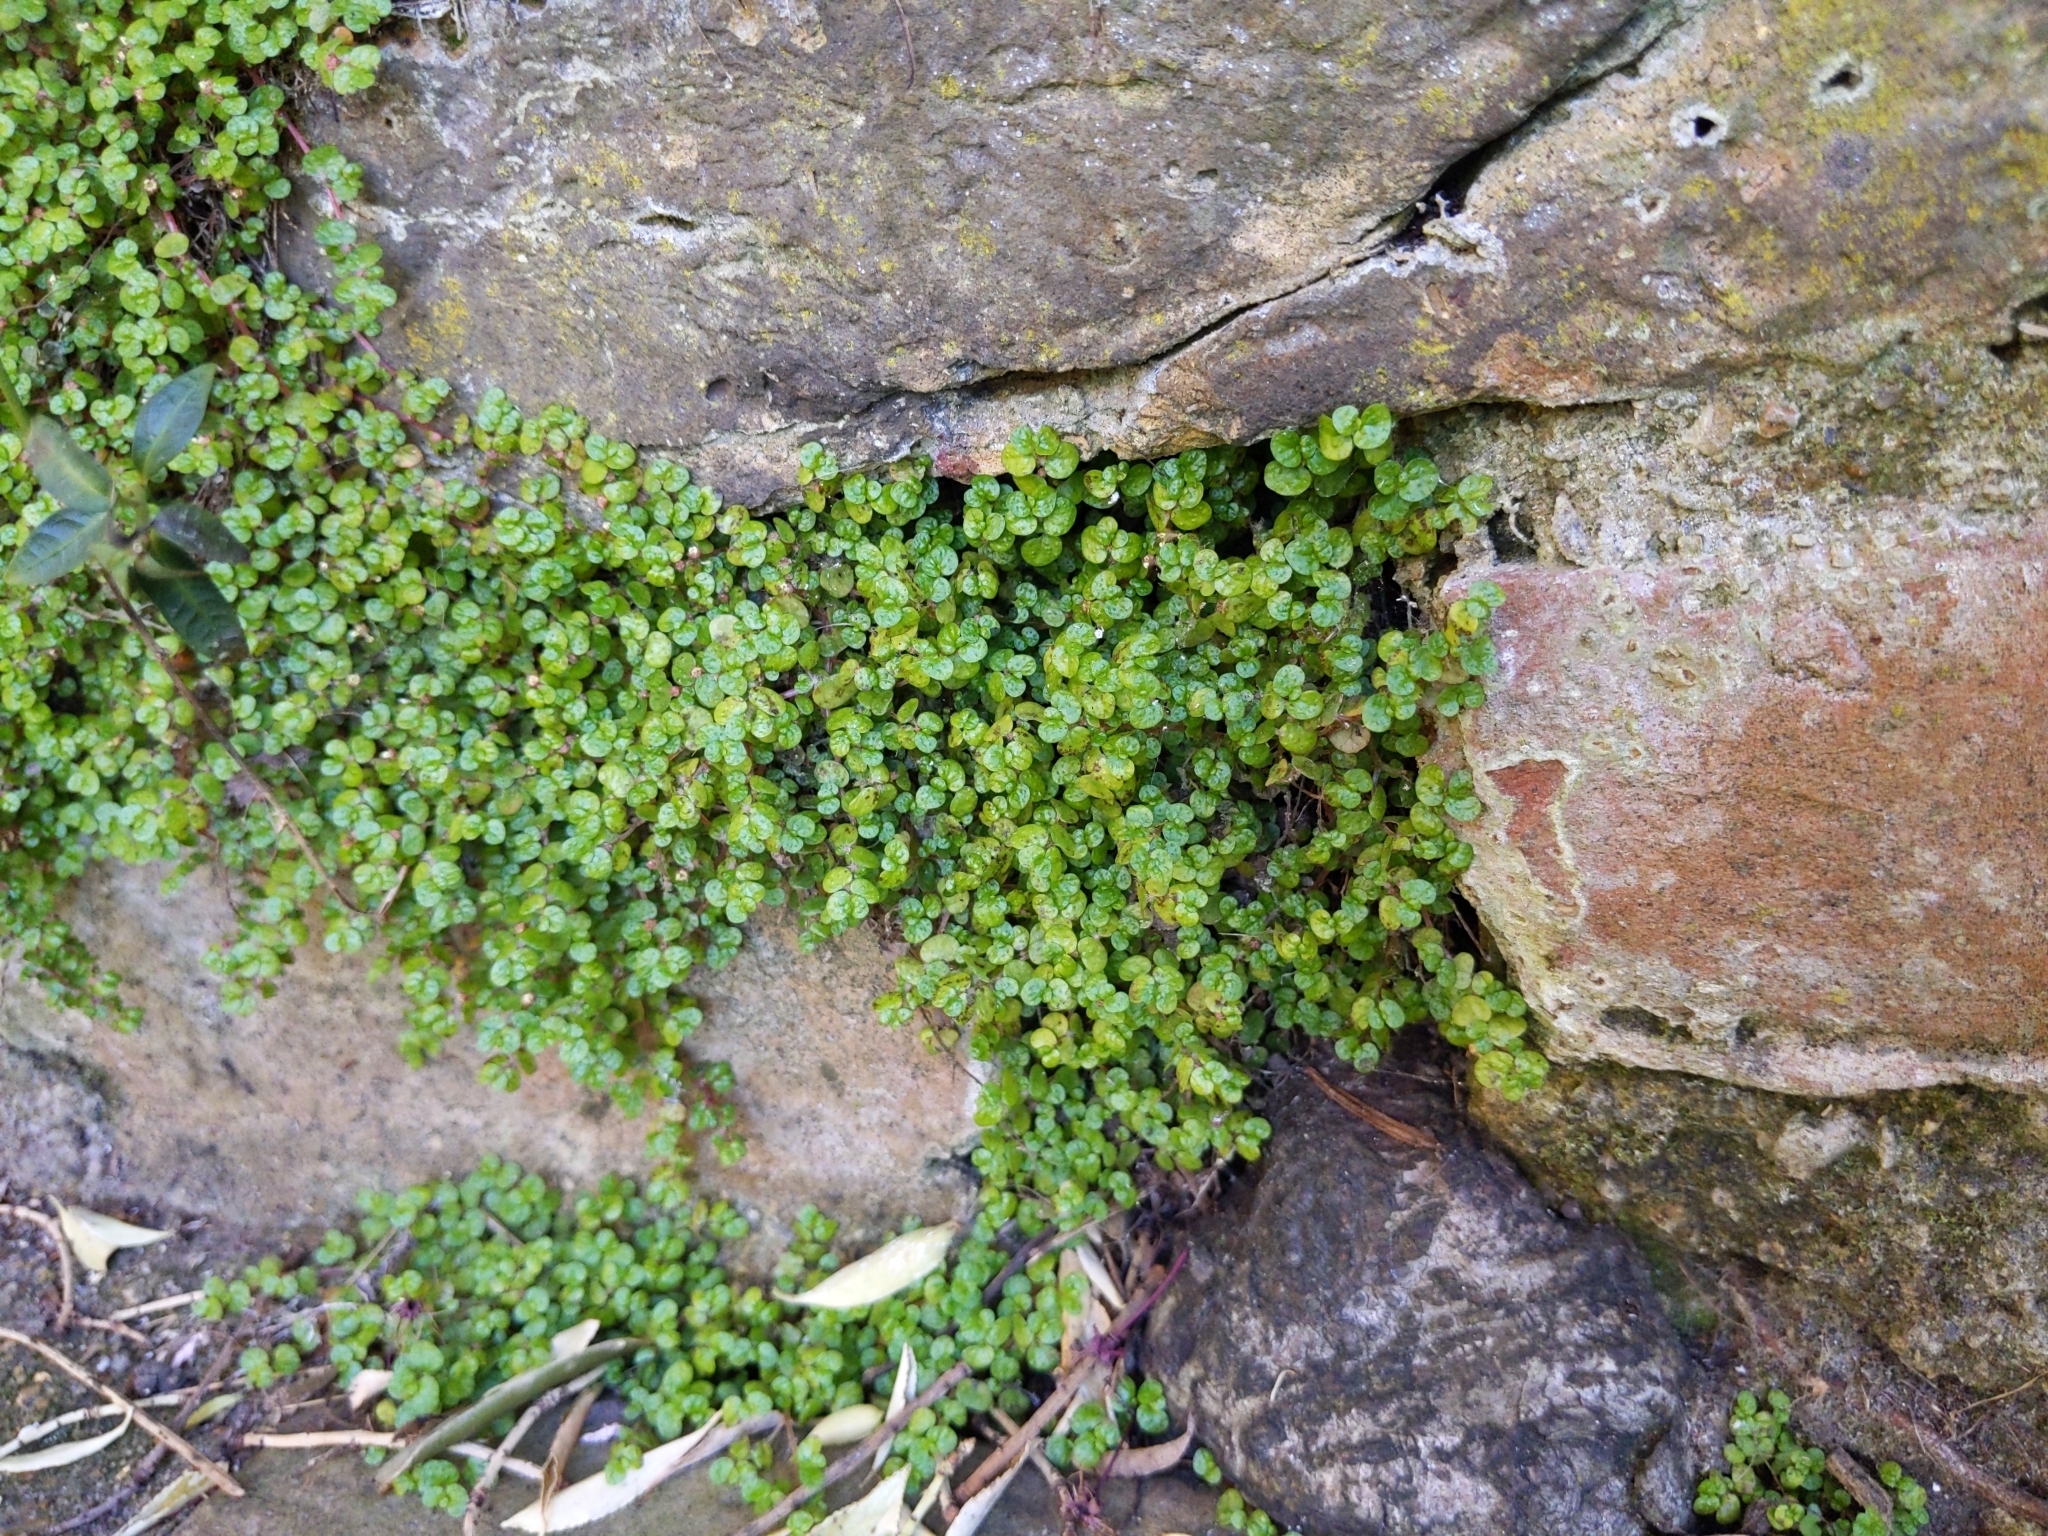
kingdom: Plantae
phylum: Tracheophyta
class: Magnoliopsida
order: Rosales
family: Urticaceae
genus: Soleirolia
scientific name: Soleirolia soleirolii
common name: Mind-your-own-business
